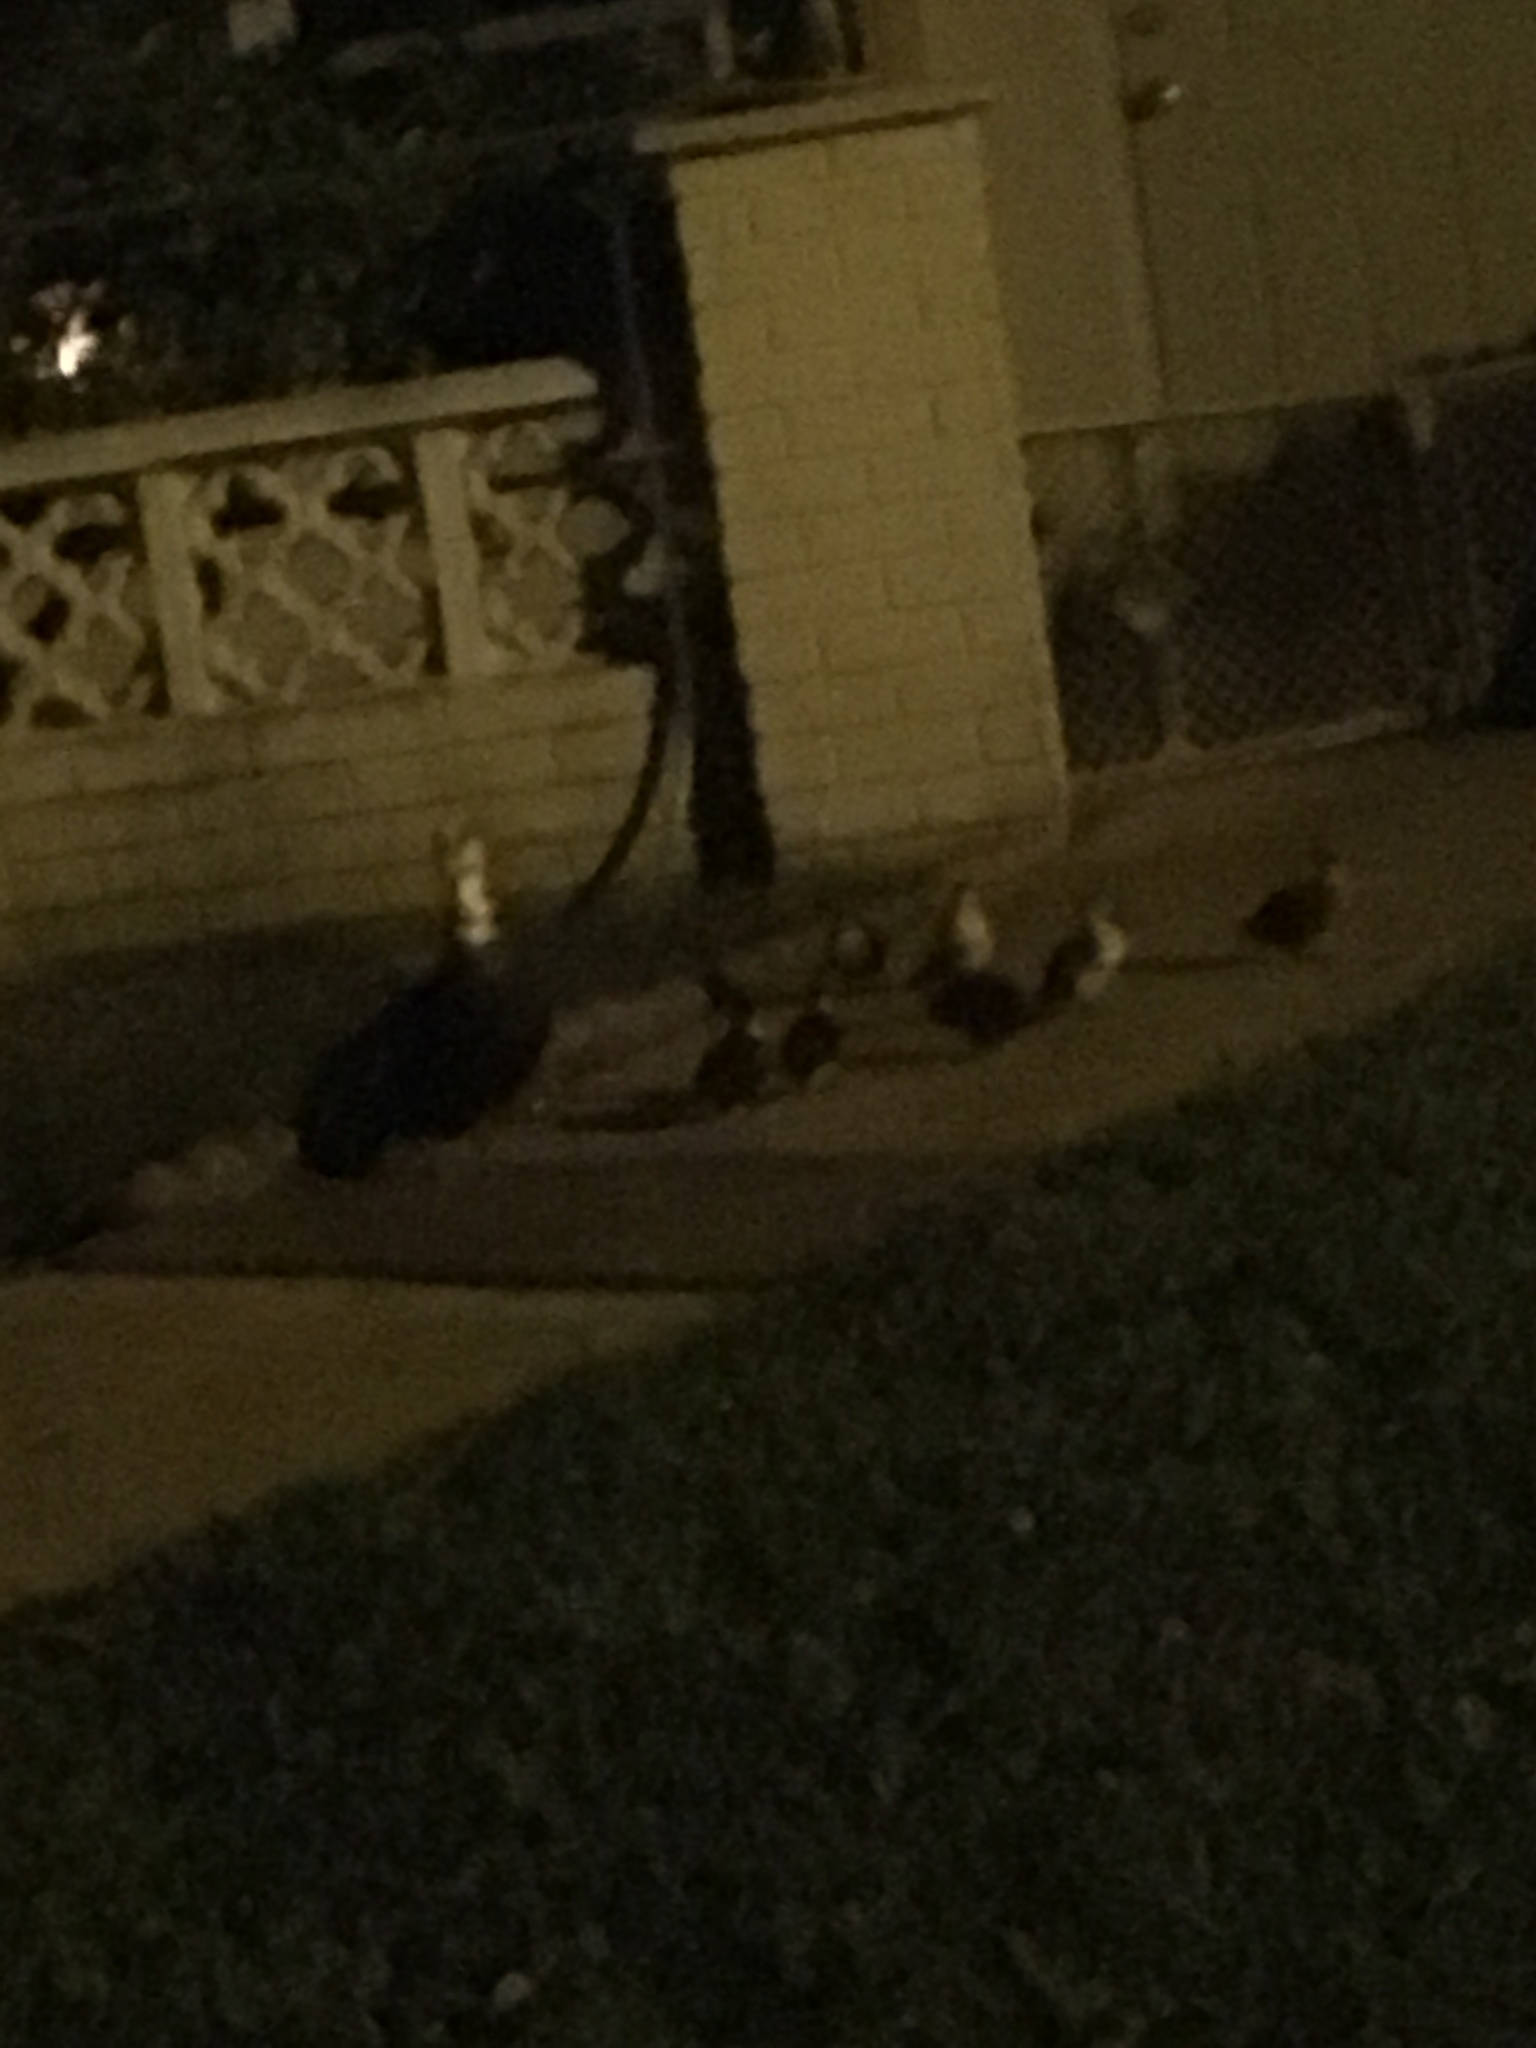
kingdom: Animalia
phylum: Chordata
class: Aves
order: Anseriformes
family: Anatidae
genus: Cairina
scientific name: Cairina moschata
